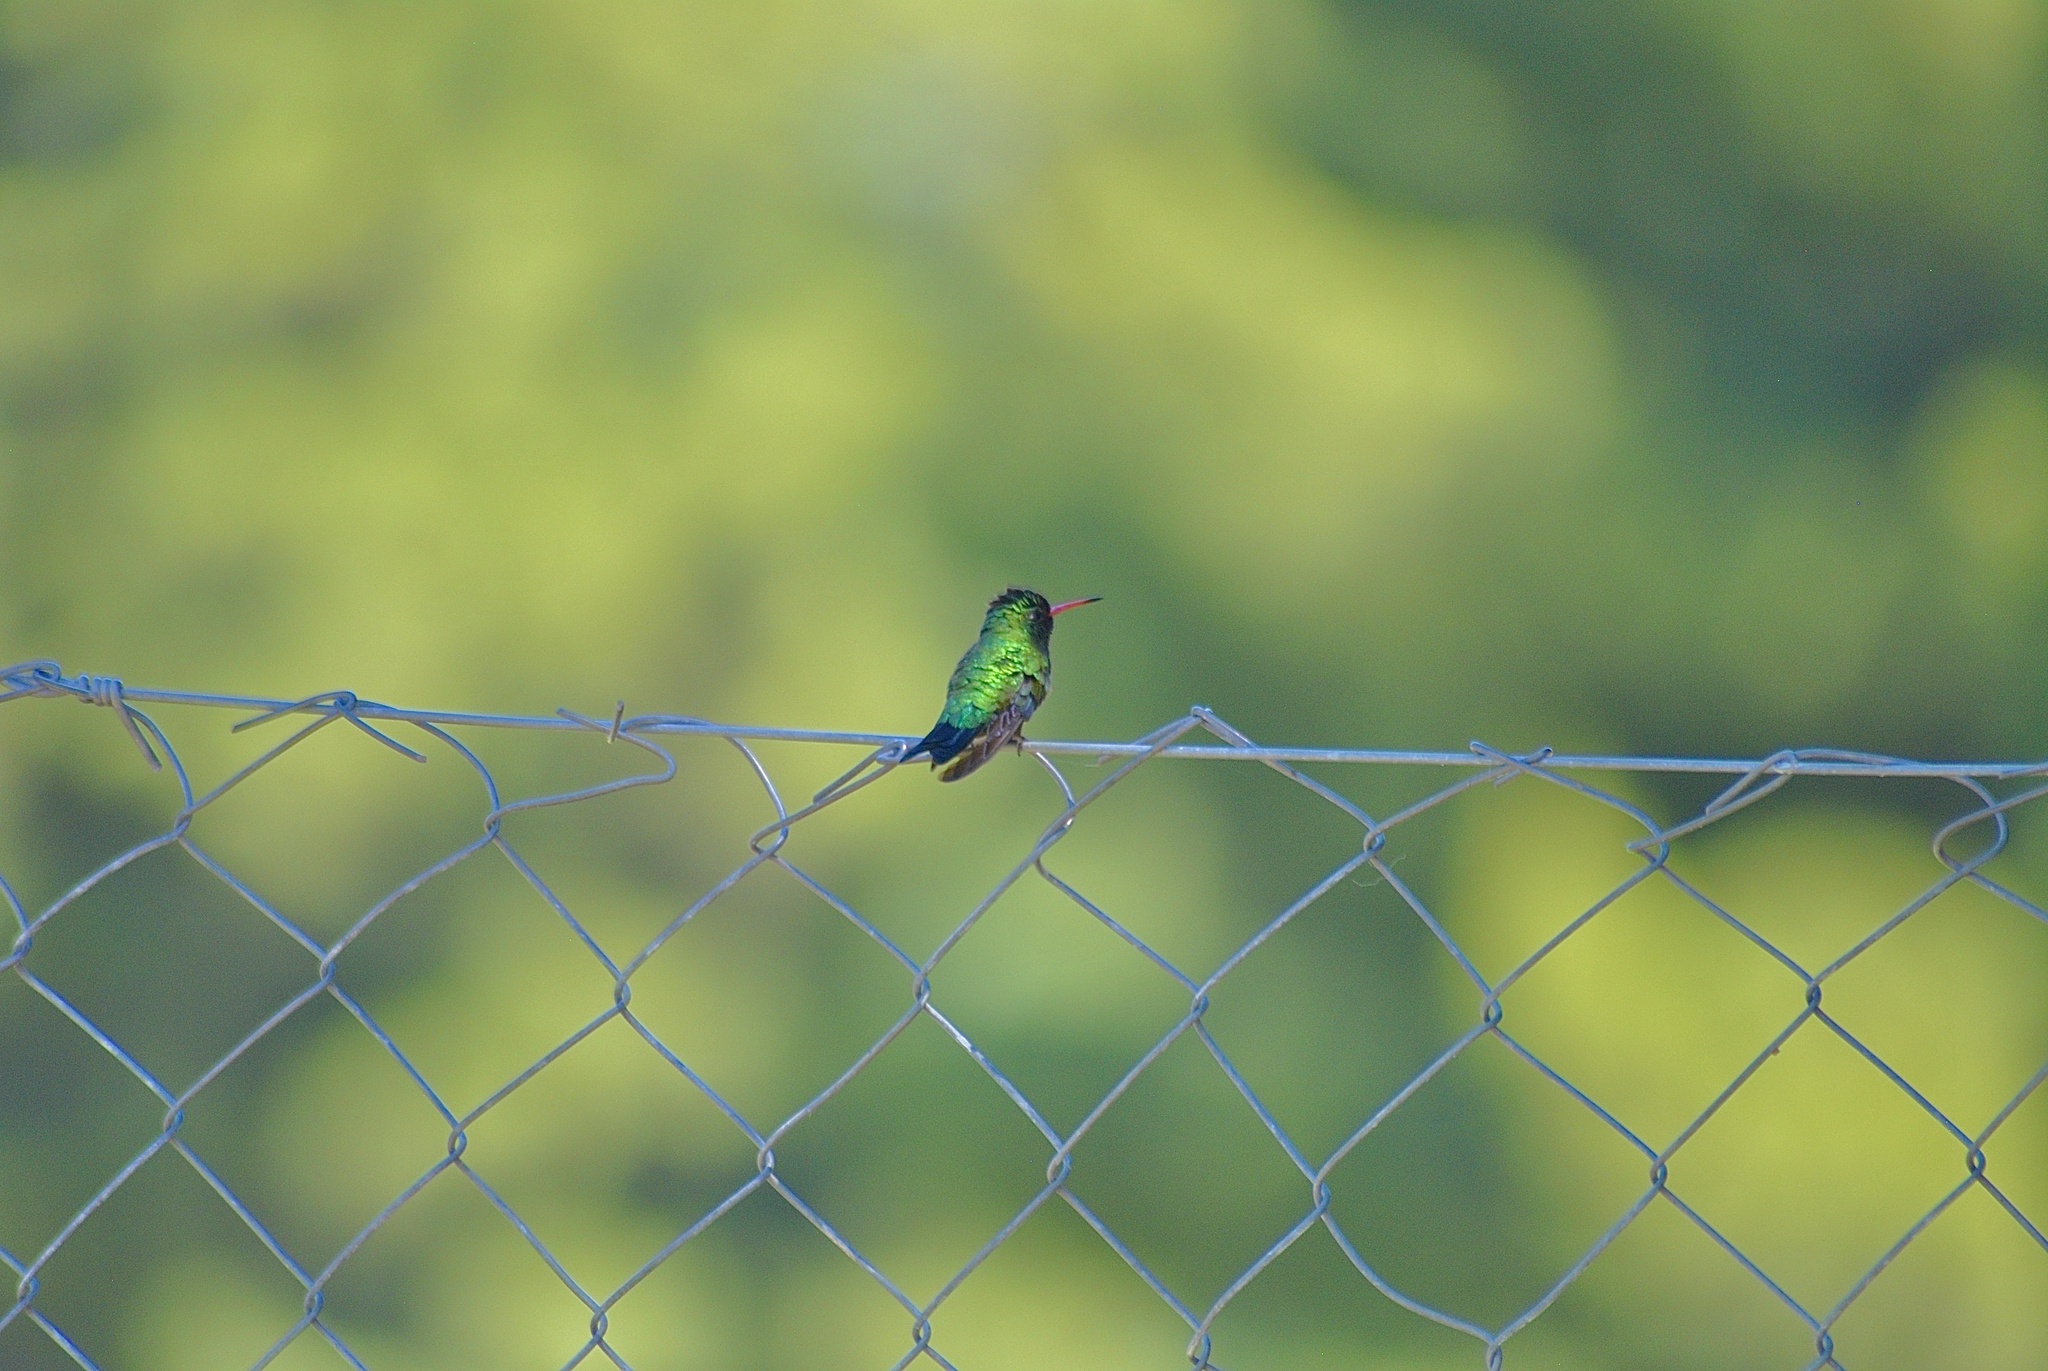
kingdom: Animalia
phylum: Chordata
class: Aves
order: Apodiformes
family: Trochilidae
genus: Chlorostilbon
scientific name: Chlorostilbon lucidus
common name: Glittering-bellied emerald
